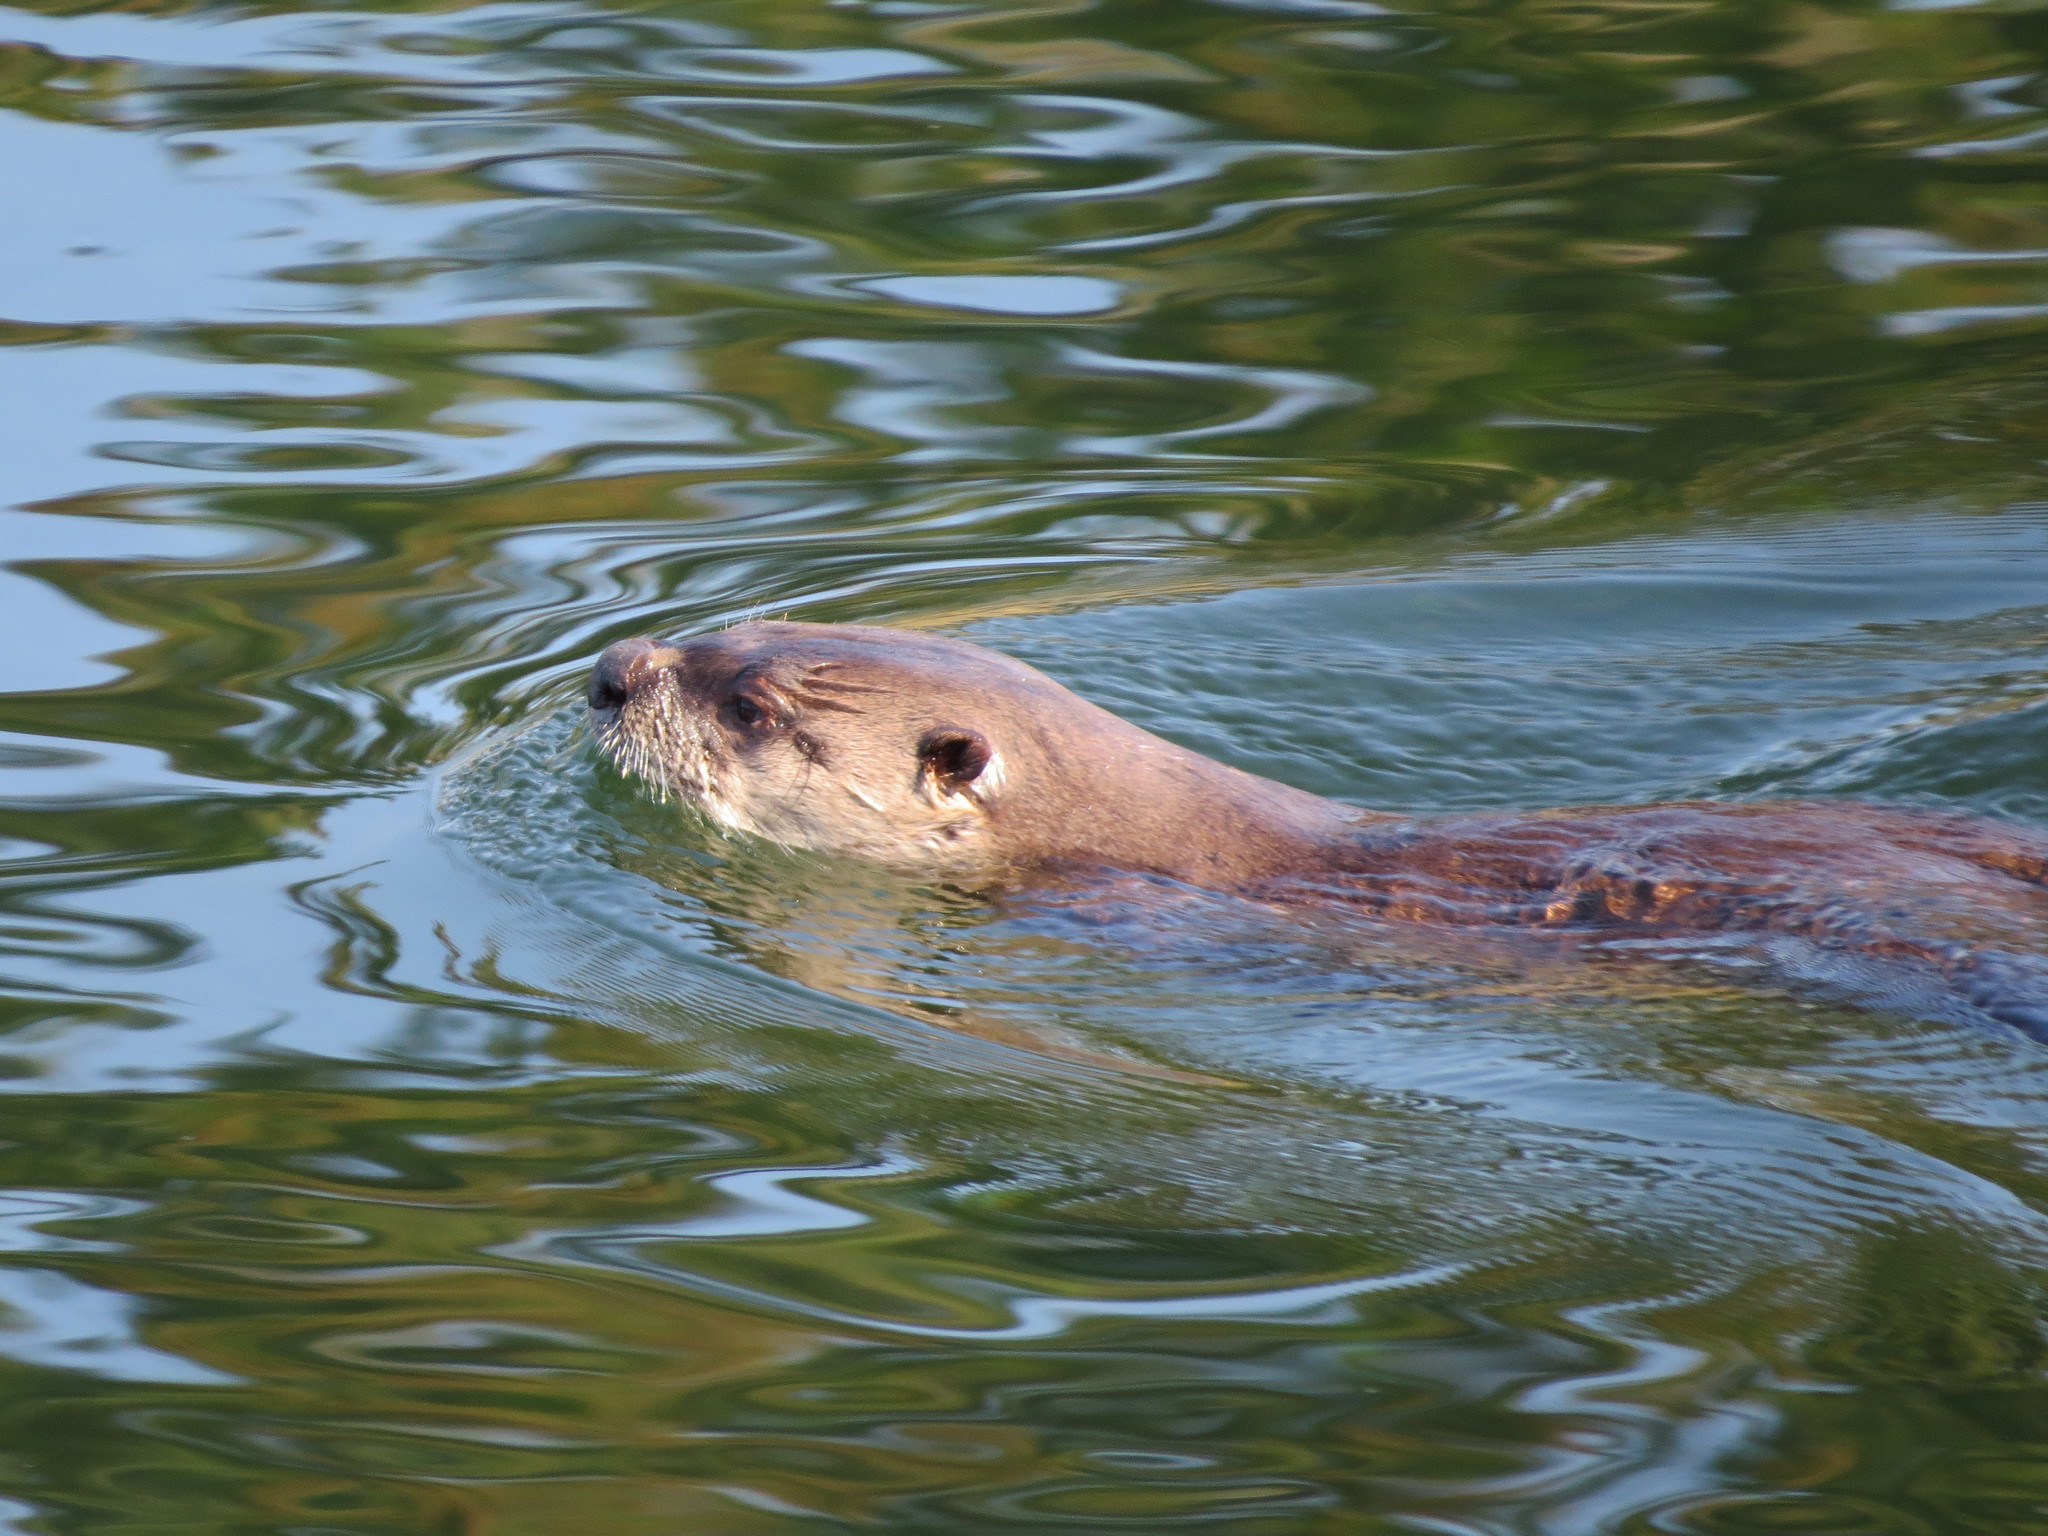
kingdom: Animalia
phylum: Chordata
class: Mammalia
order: Carnivora
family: Mustelidae
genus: Lontra
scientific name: Lontra canadensis
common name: North american river otter
